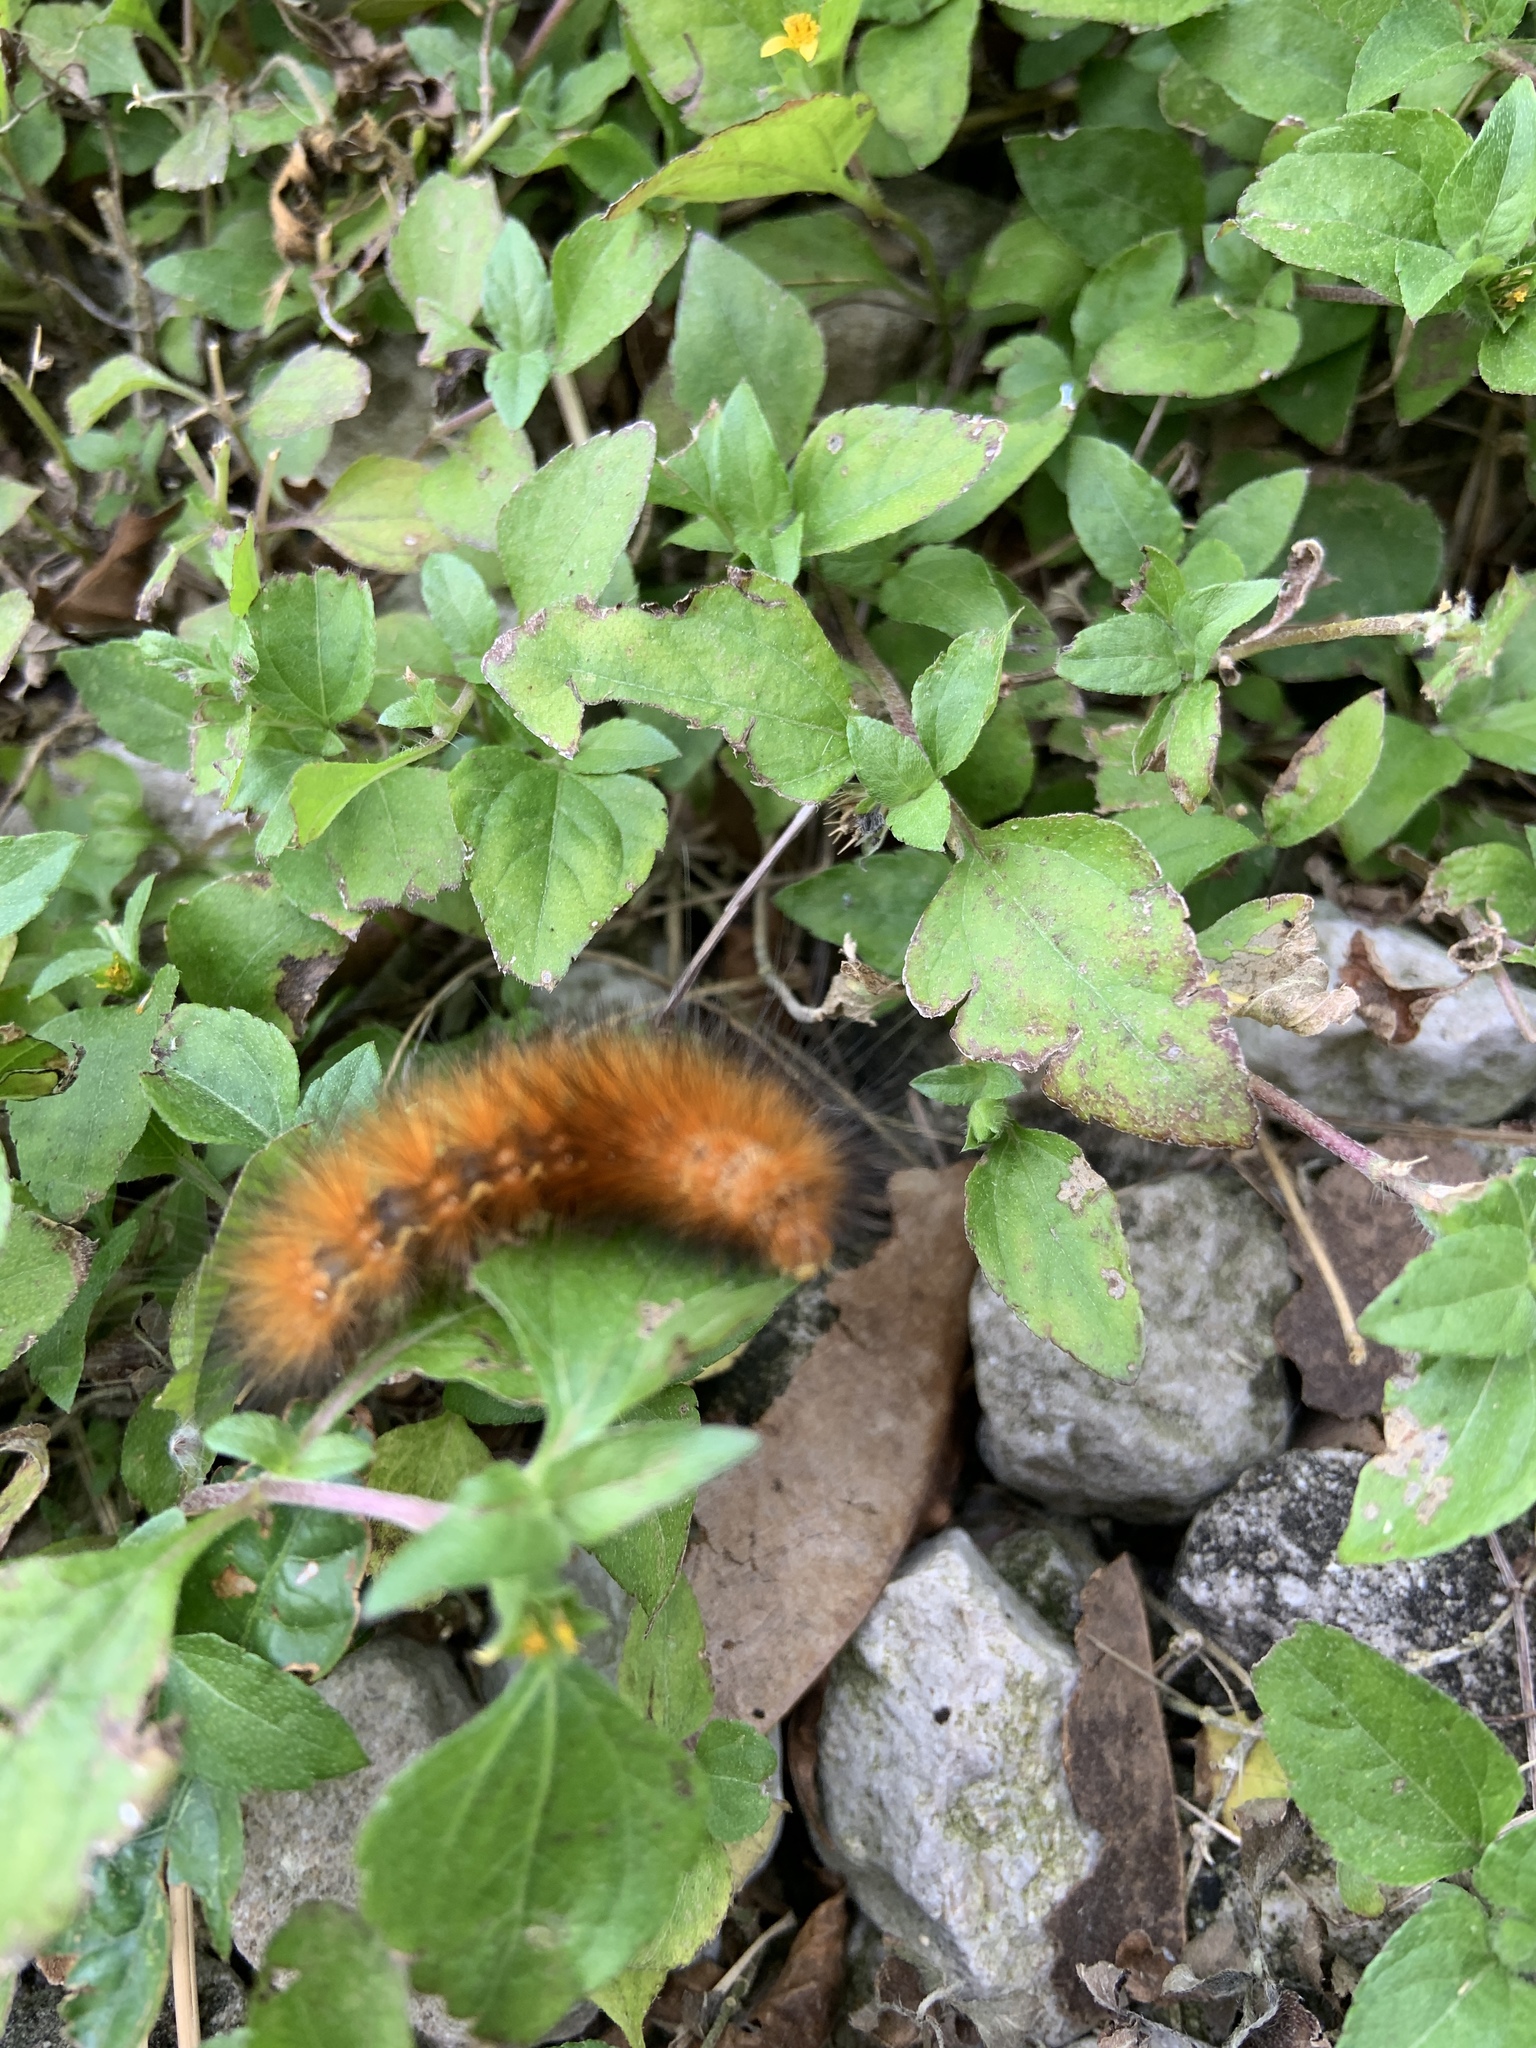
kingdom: Animalia
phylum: Arthropoda
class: Insecta
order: Lepidoptera
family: Erebidae
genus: Spilosoma
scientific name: Spilosoma virginica
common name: Virginia tiger moth
